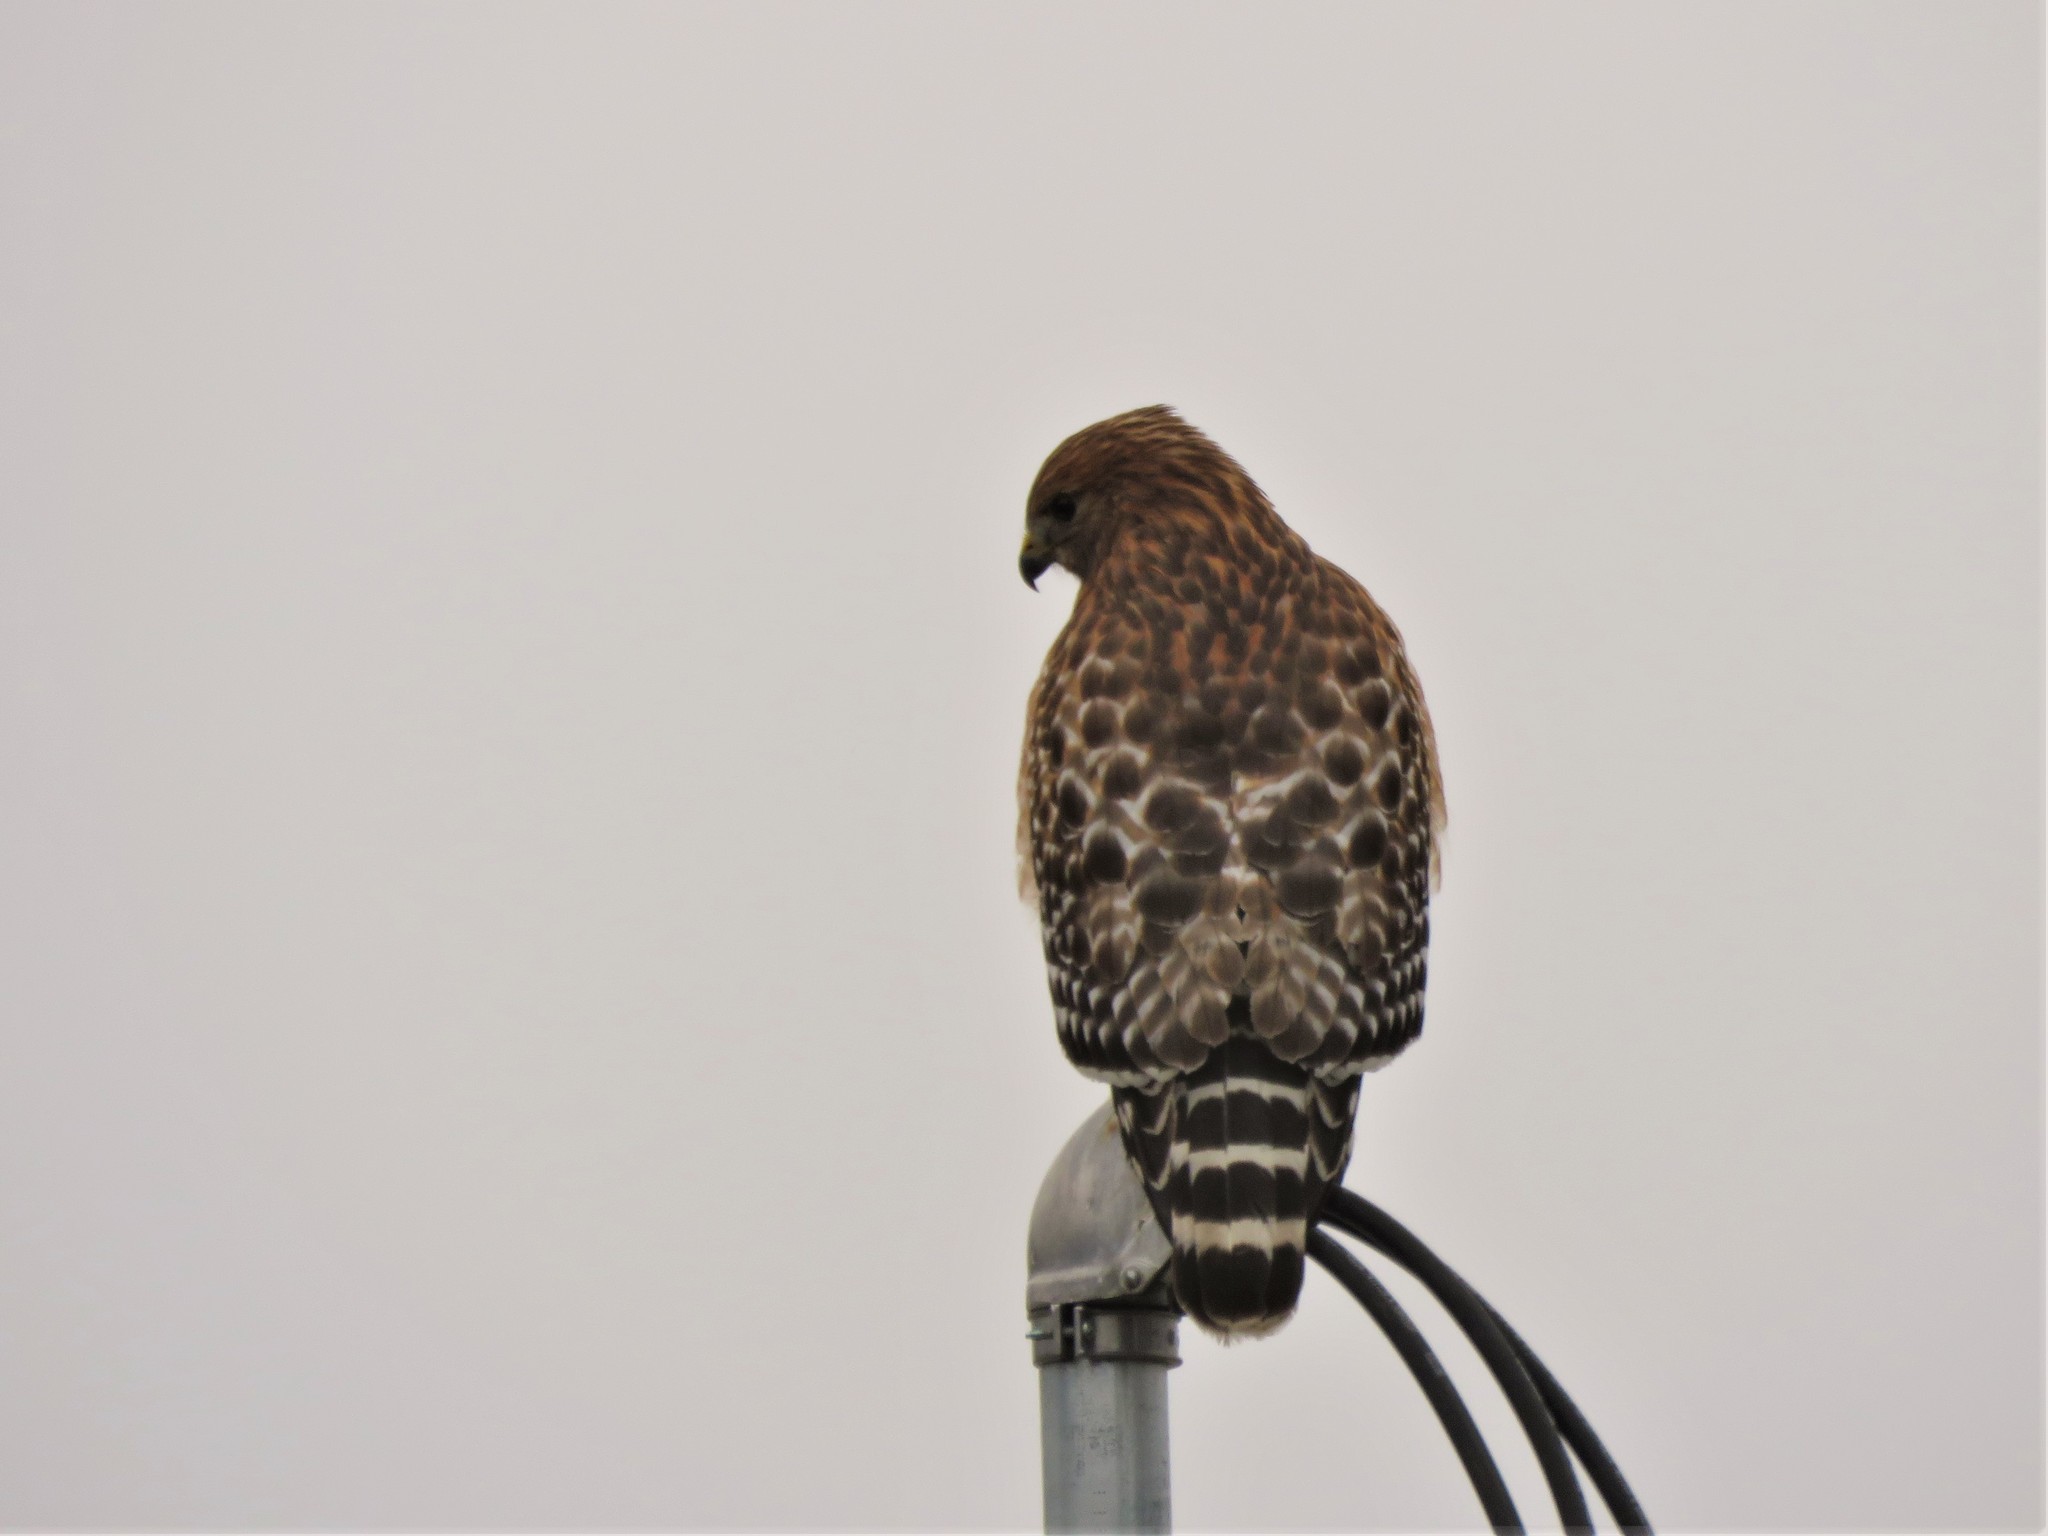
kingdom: Animalia
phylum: Chordata
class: Aves
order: Accipitriformes
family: Accipitridae
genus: Buteo
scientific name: Buteo lineatus
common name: Red-shouldered hawk
